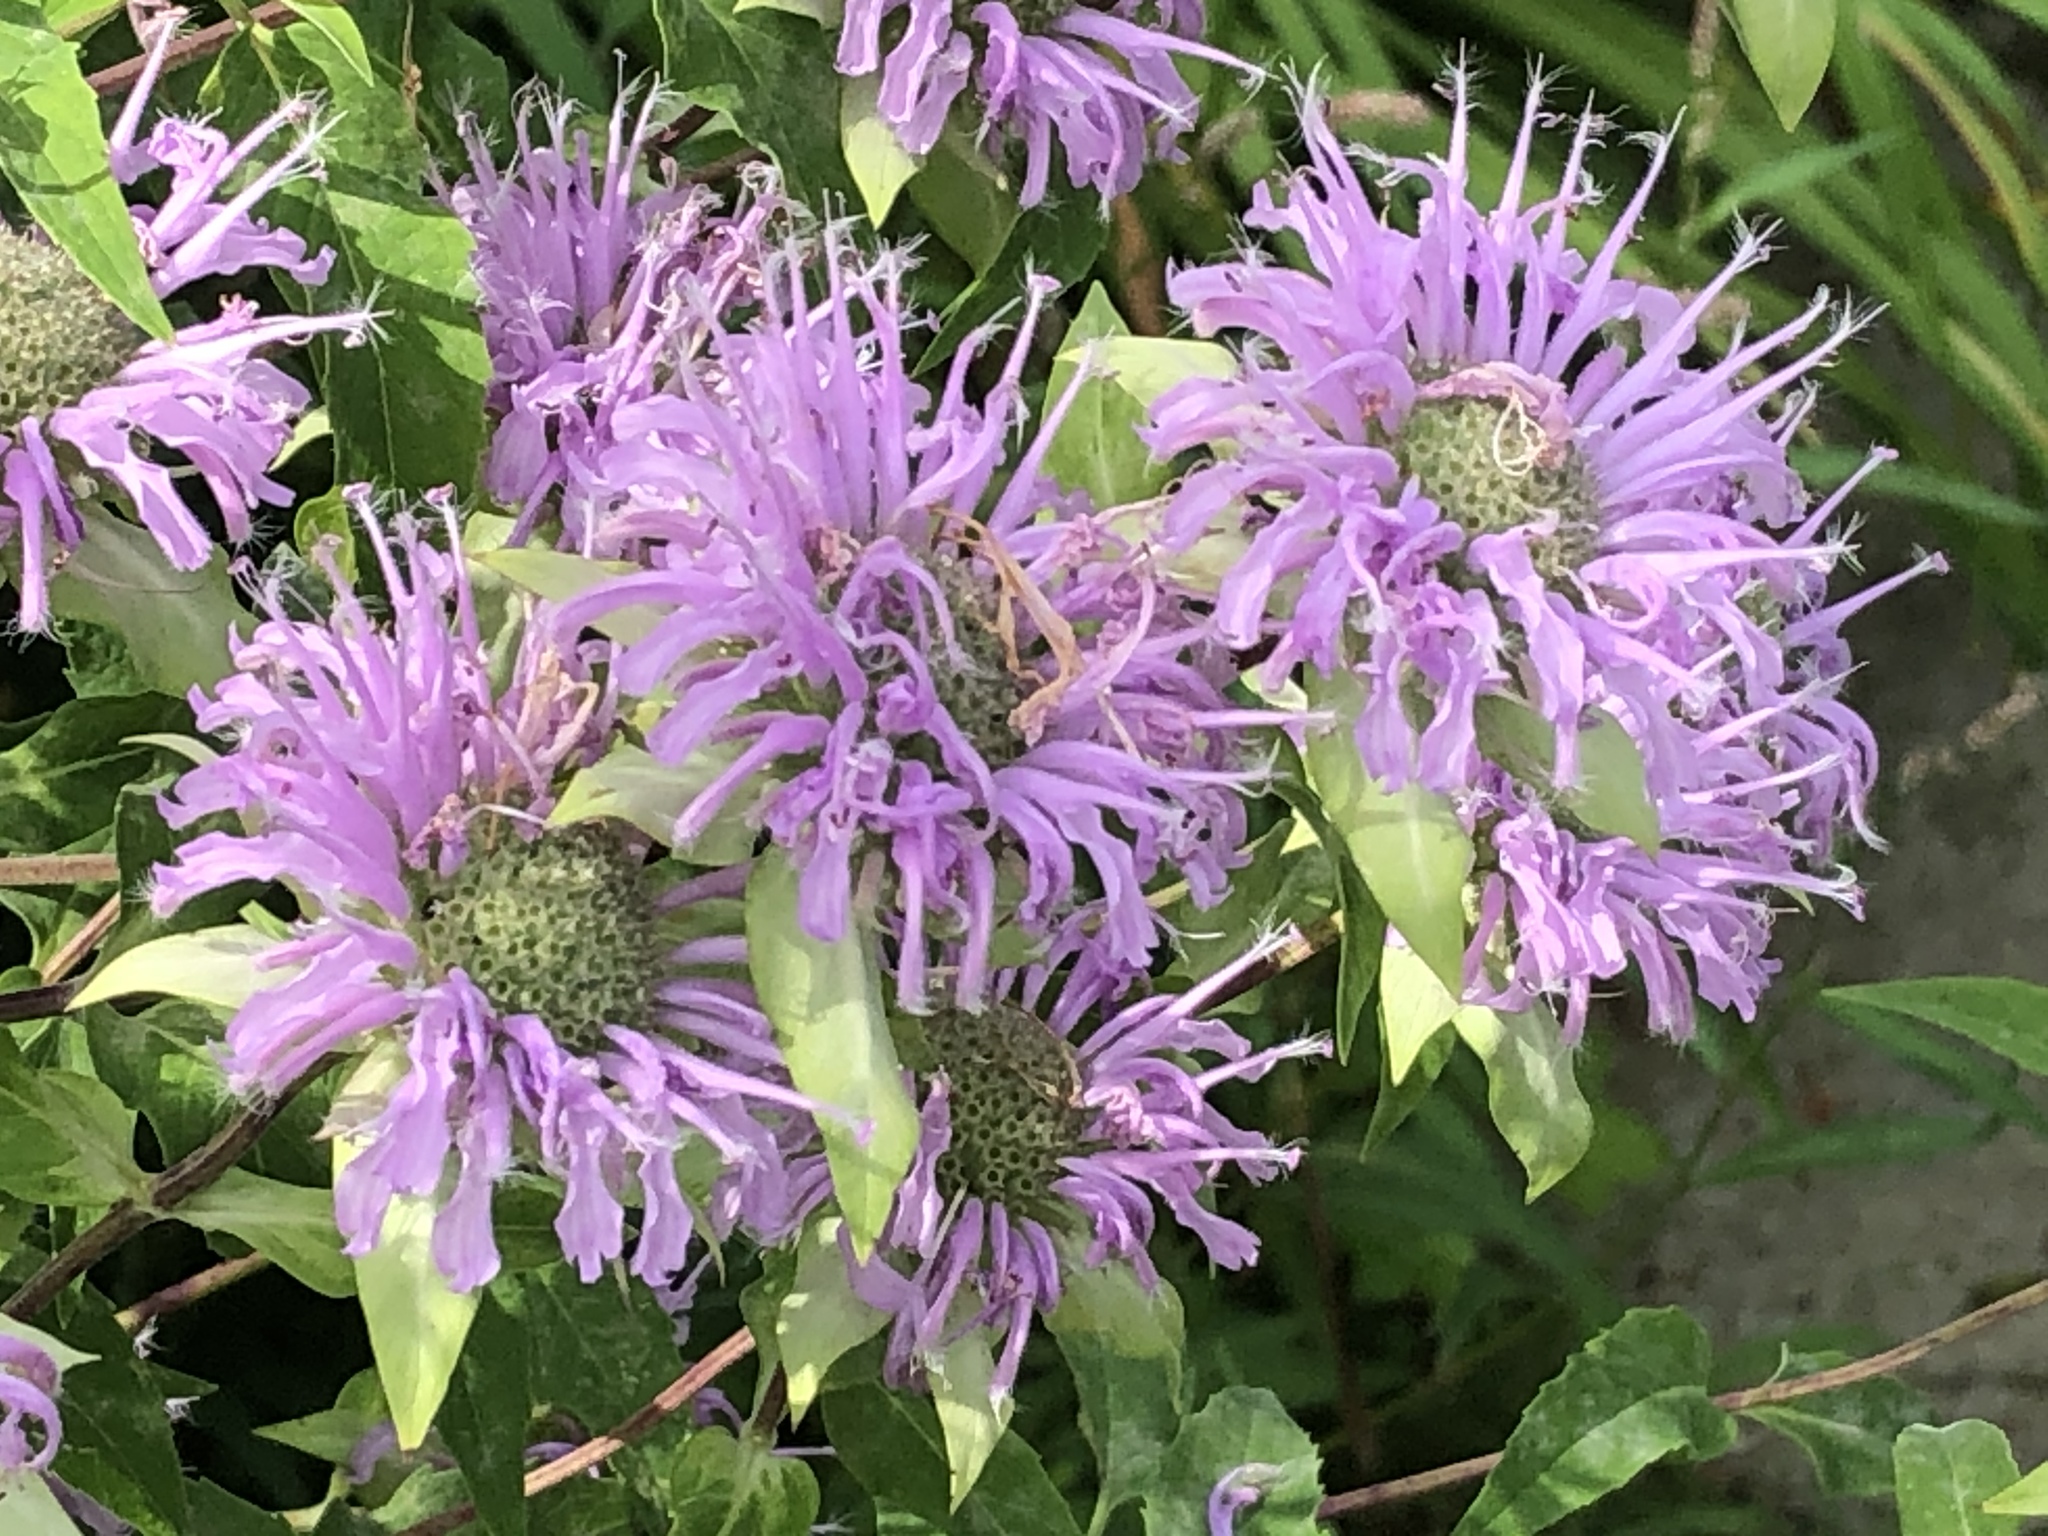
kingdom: Plantae
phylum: Tracheophyta
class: Magnoliopsida
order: Lamiales
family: Lamiaceae
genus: Monarda
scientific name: Monarda fistulosa
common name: Purple beebalm
